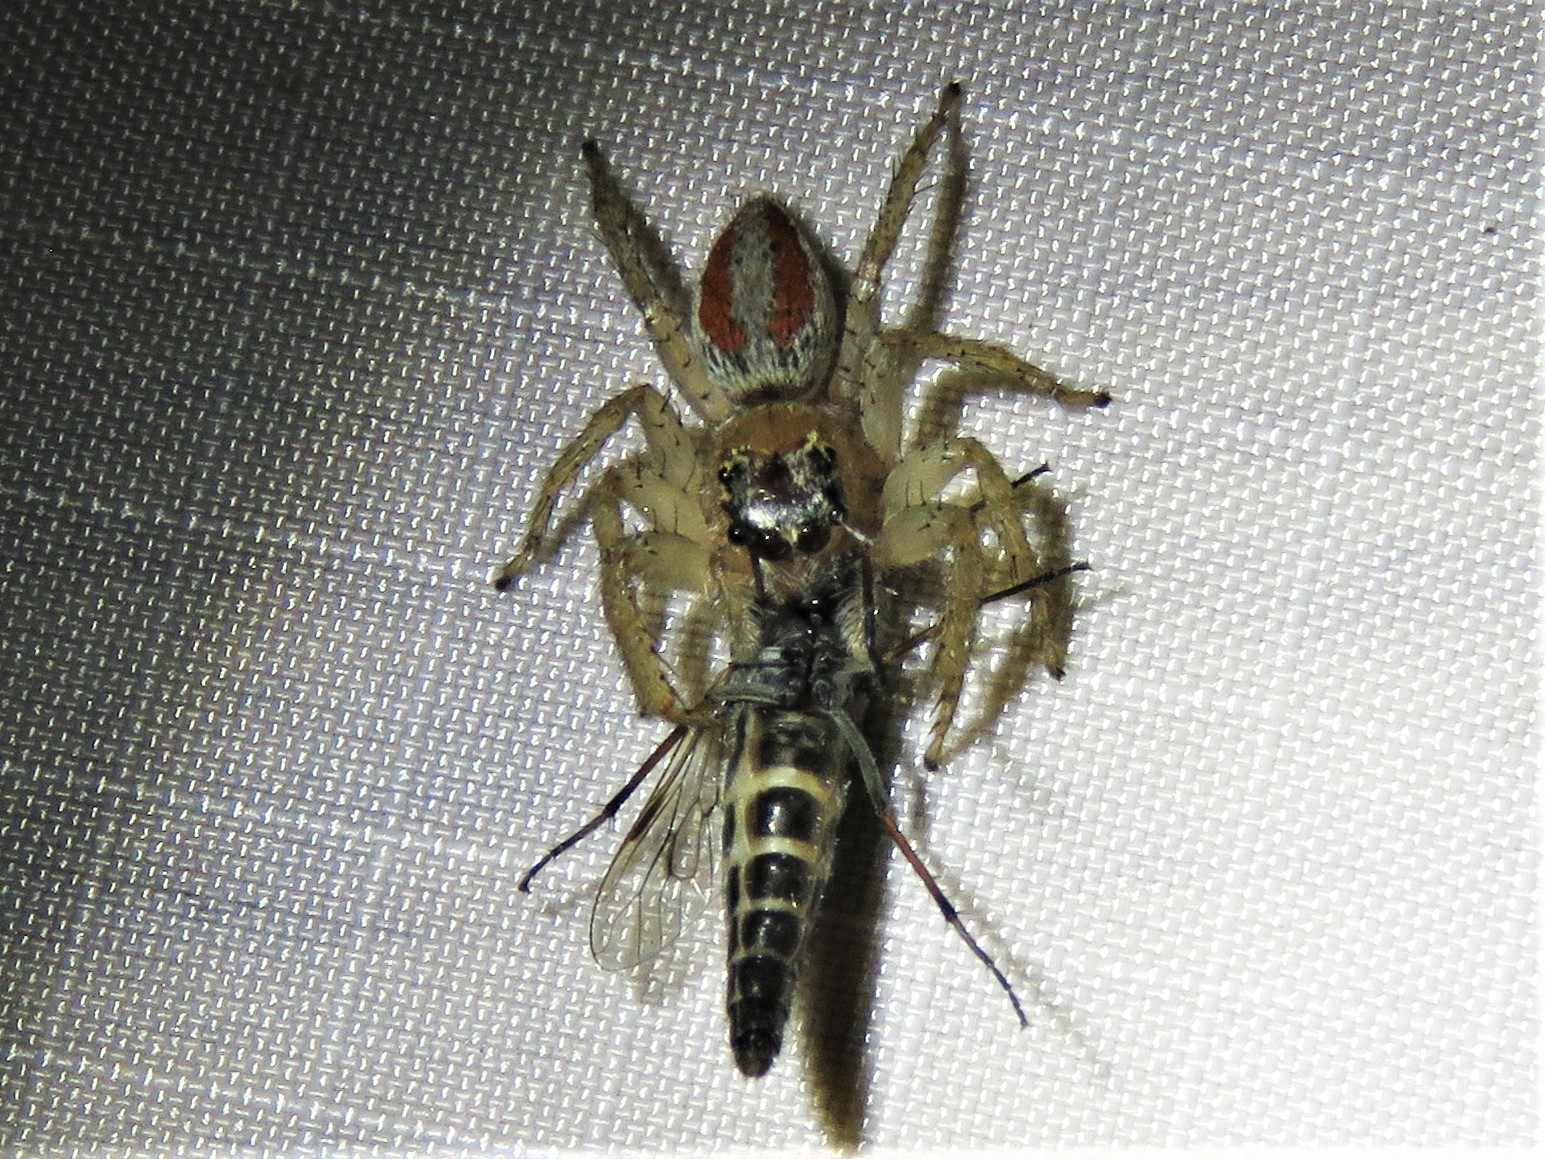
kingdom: Animalia
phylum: Arthropoda
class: Arachnida
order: Araneae
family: Salticidae
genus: Maevia
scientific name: Maevia inclemens
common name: Dimorphic jumper
